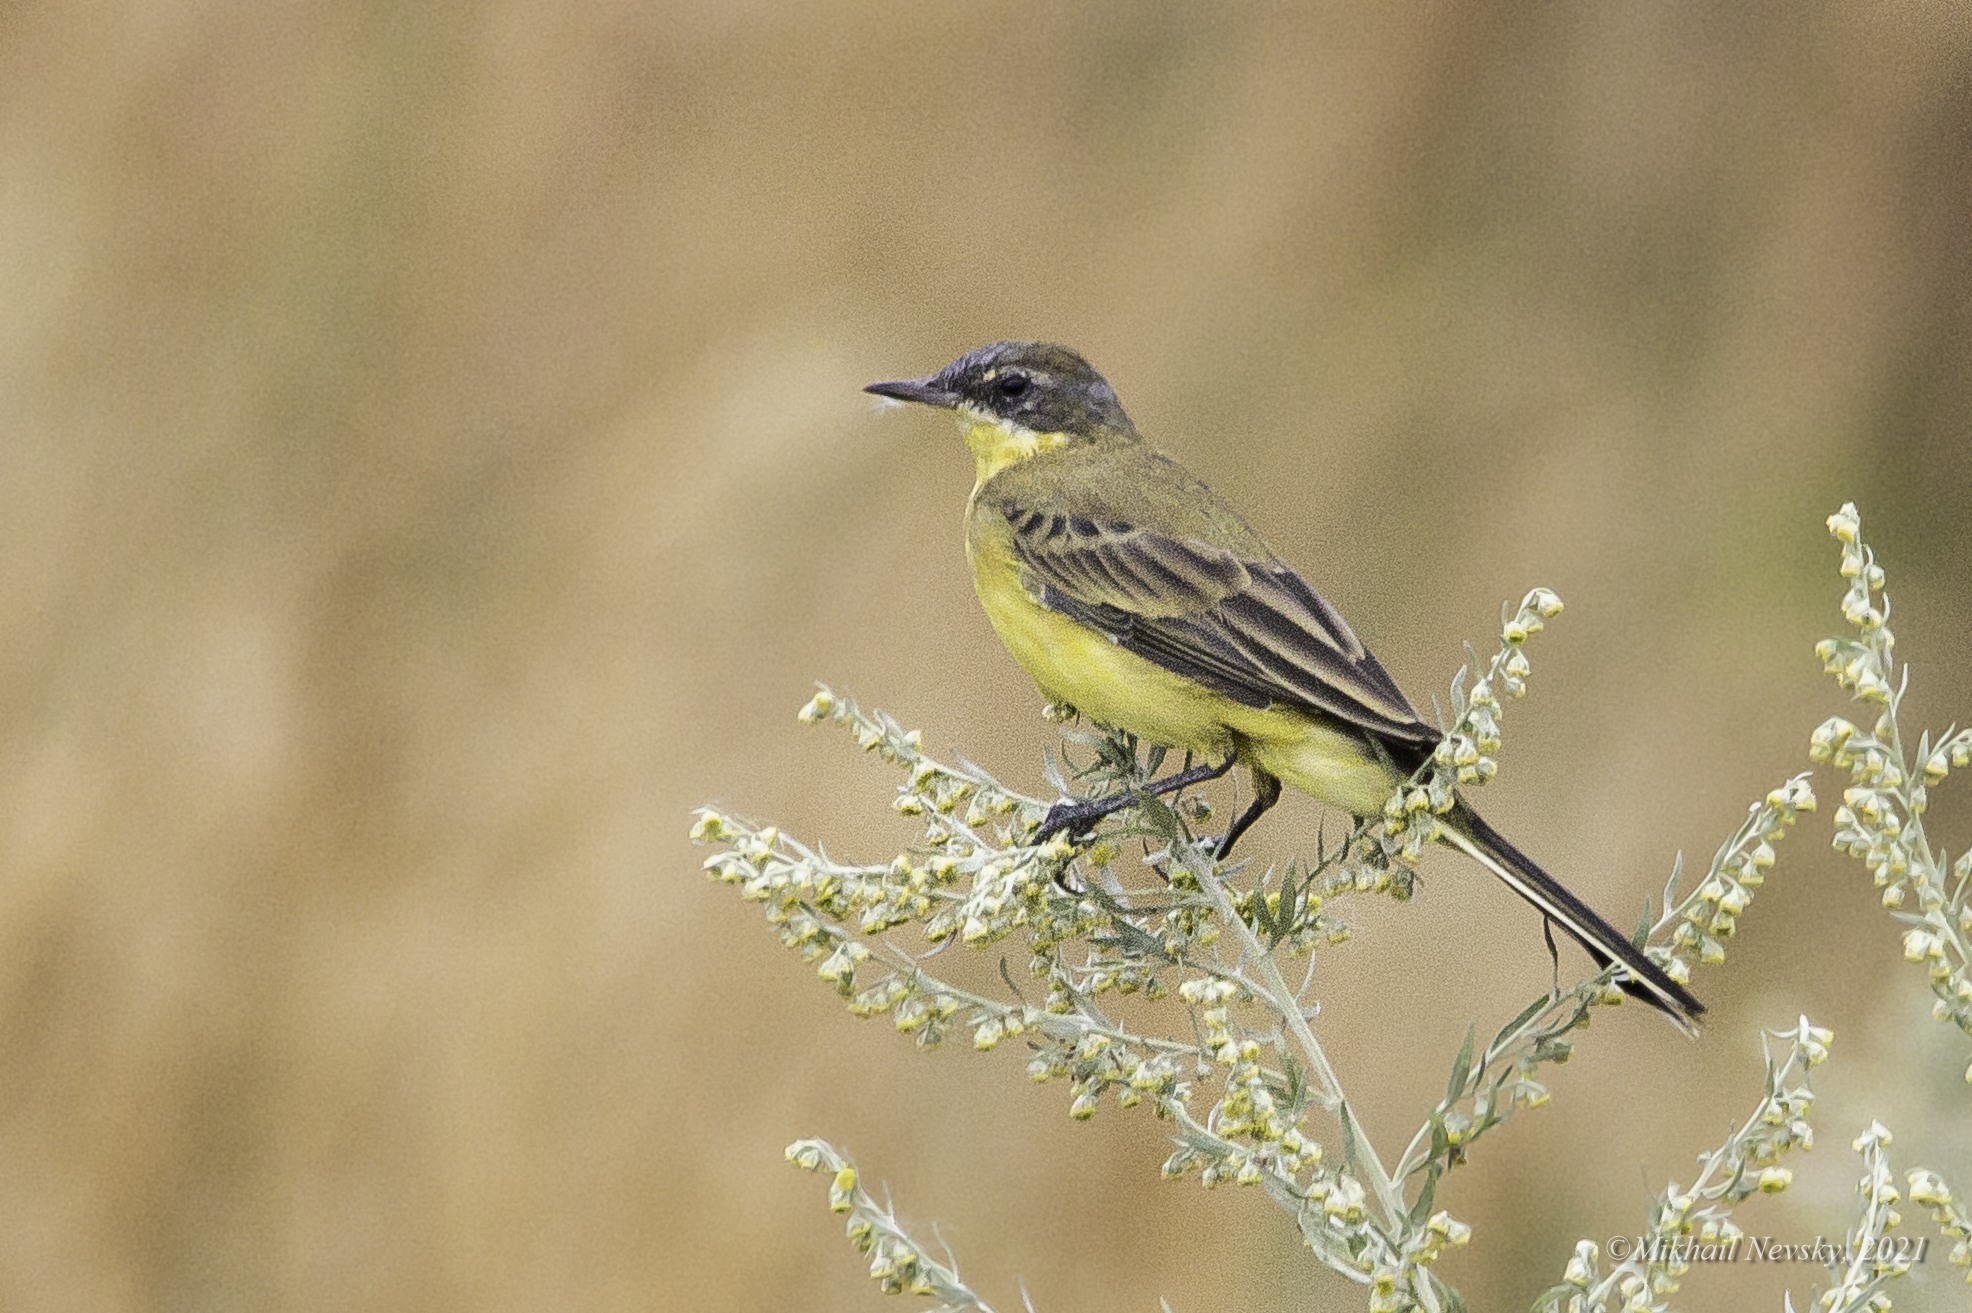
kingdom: Animalia
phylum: Chordata
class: Aves
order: Passeriformes
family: Motacillidae
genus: Motacilla
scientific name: Motacilla flava
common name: Western yellow wagtail
